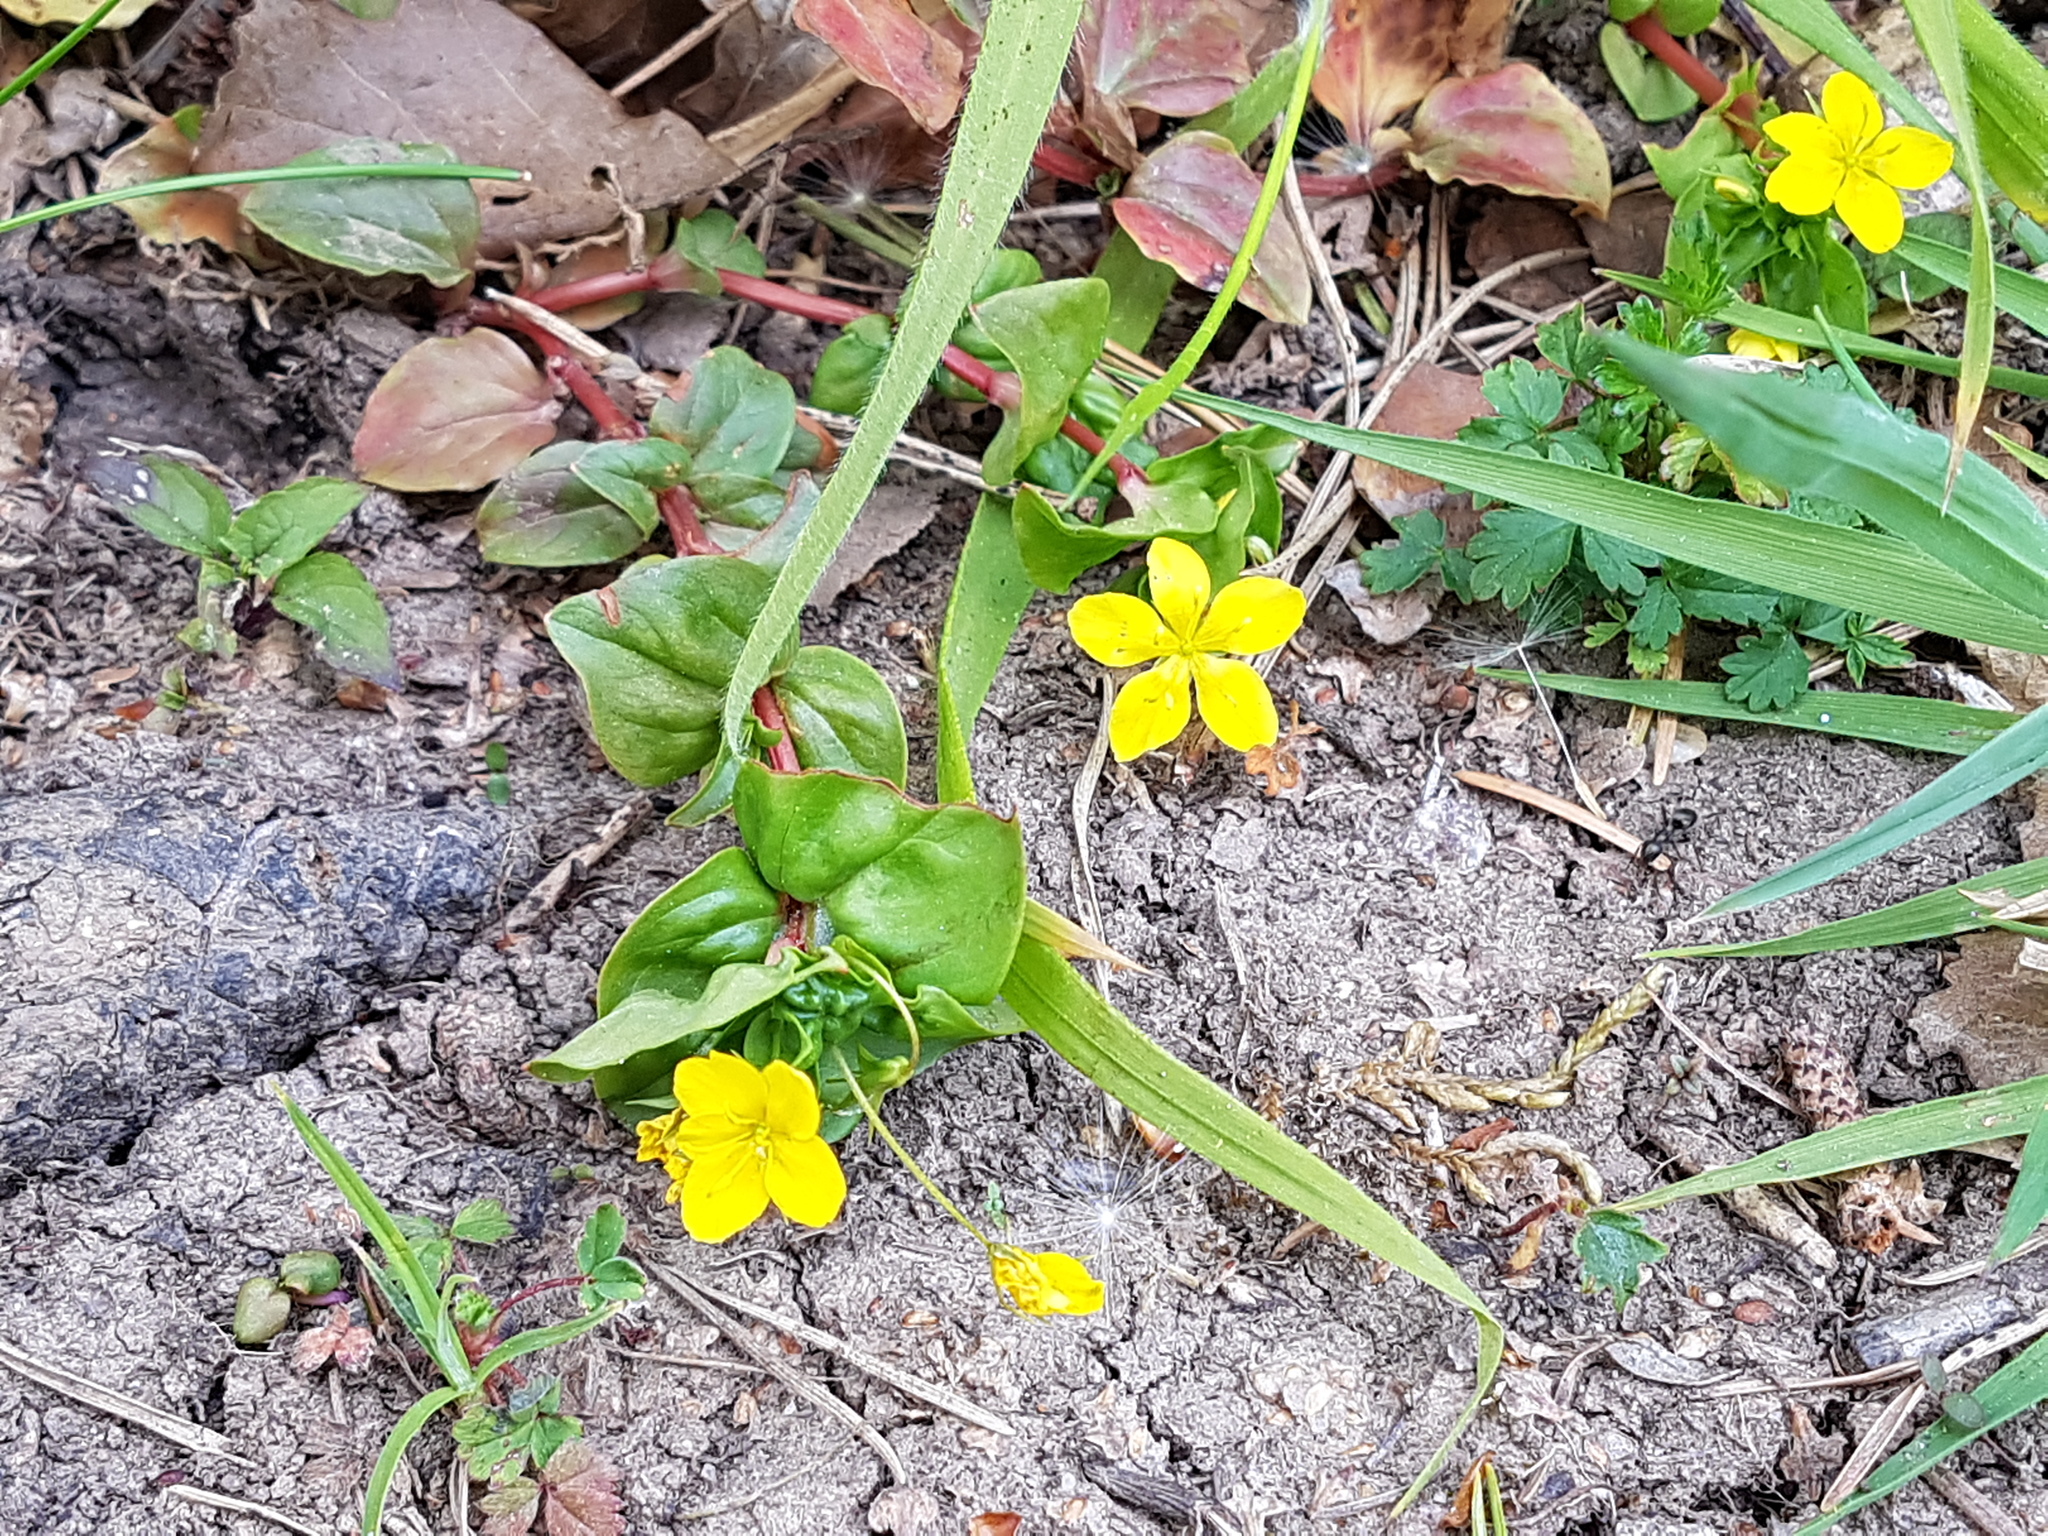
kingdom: Plantae
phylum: Tracheophyta
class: Magnoliopsida
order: Ericales
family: Primulaceae
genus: Lysimachia
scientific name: Lysimachia nemorum
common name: Yellow pimpernel
